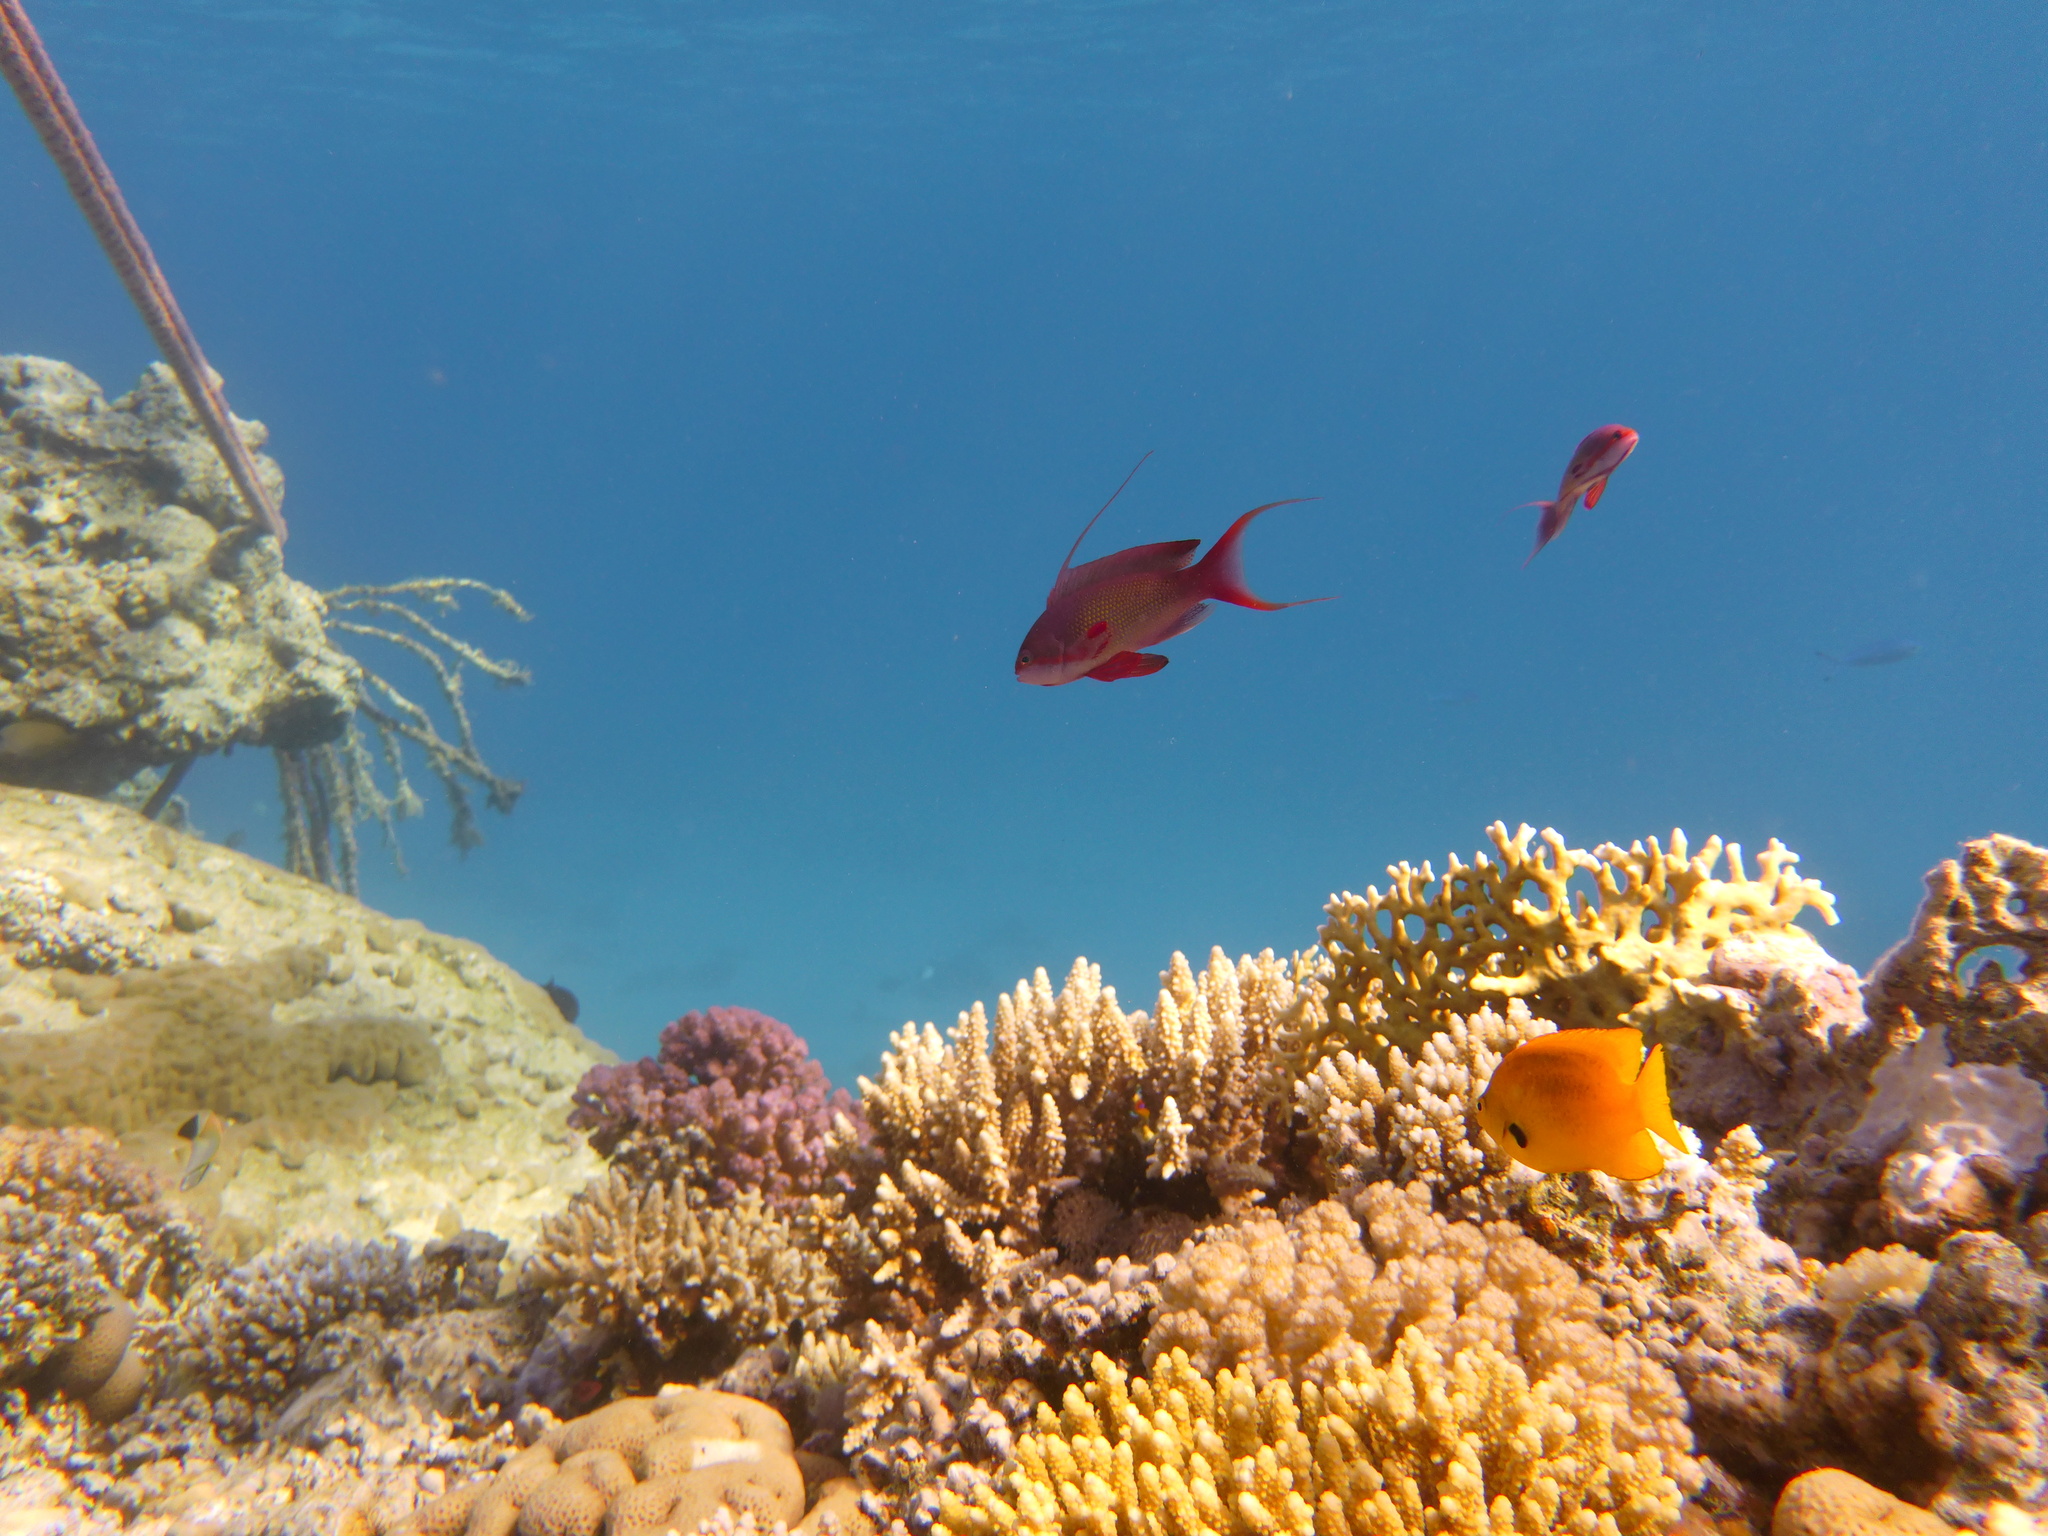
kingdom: Animalia
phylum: Chordata
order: Perciformes
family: Serranidae
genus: Pseudanthias
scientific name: Pseudanthias squamipinnis
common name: Scalefin anthias
